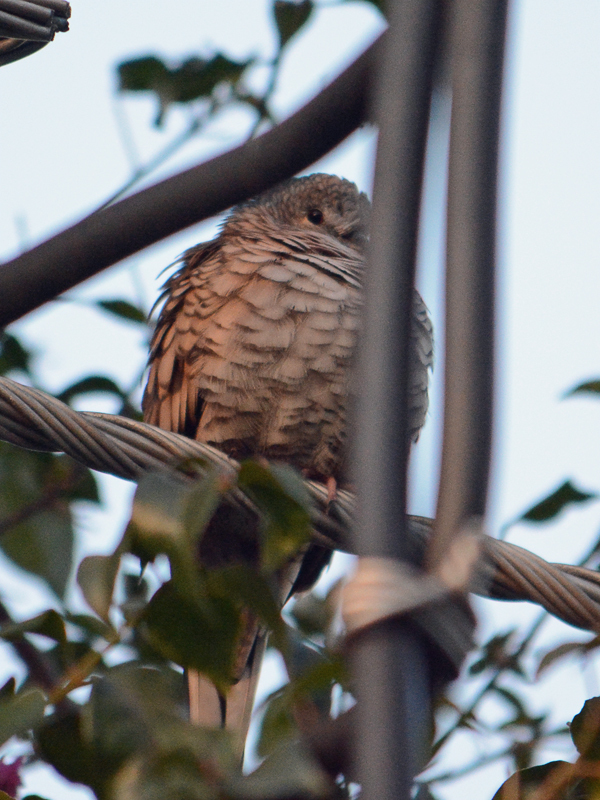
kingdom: Animalia
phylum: Chordata
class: Aves
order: Columbiformes
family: Columbidae
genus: Columbina
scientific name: Columbina inca
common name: Inca dove
